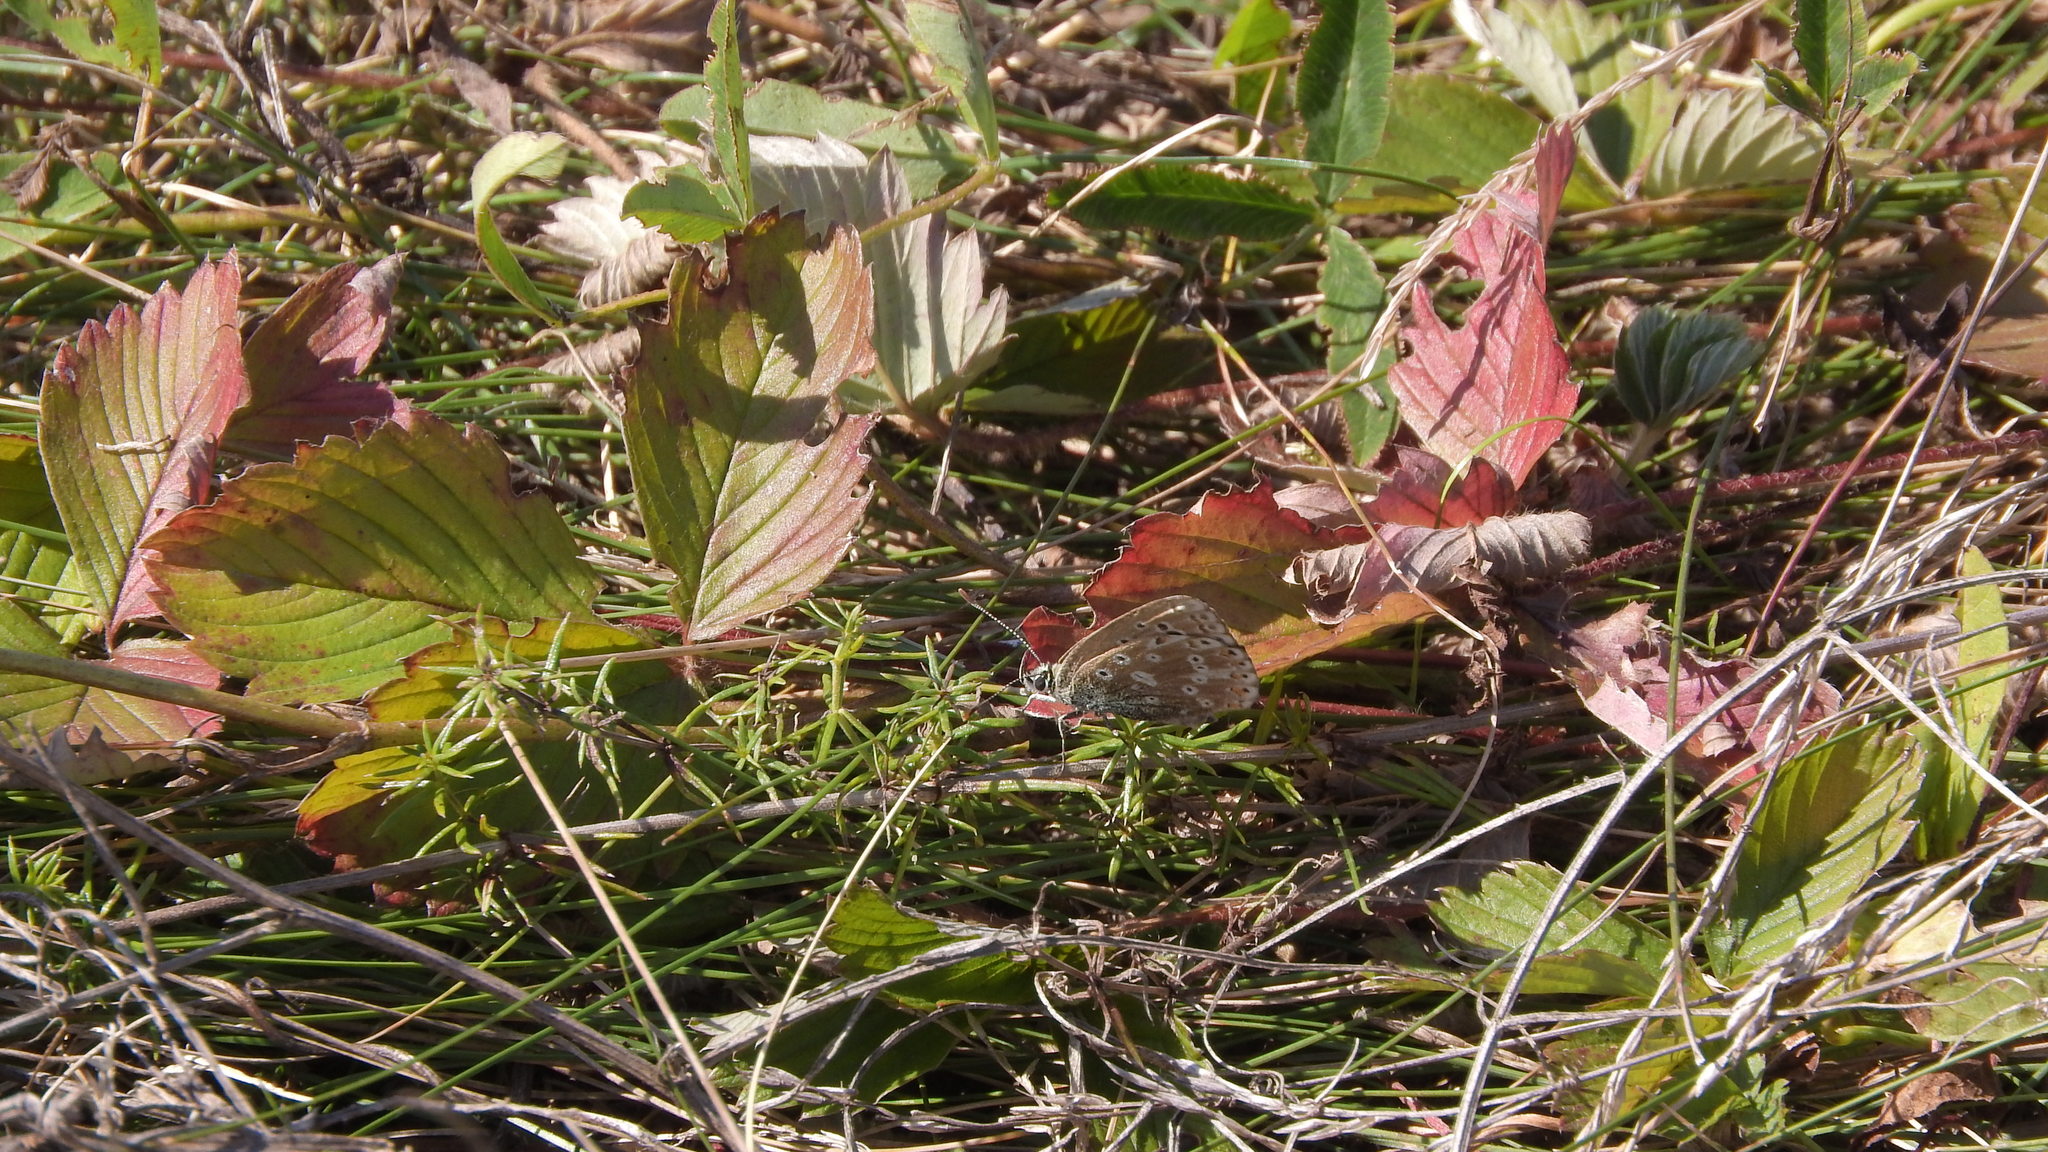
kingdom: Animalia
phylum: Arthropoda
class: Insecta
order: Lepidoptera
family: Lycaenidae
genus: Lysandra
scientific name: Lysandra coridon
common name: Chalkhill blue
